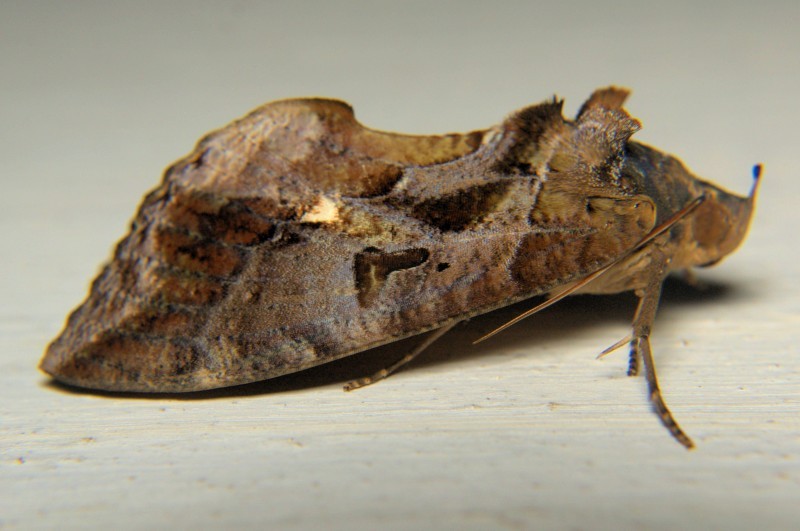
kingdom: Animalia
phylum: Arthropoda
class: Insecta
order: Lepidoptera
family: Erebidae
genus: Eudocima
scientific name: Eudocima phalonia
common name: Wasp
